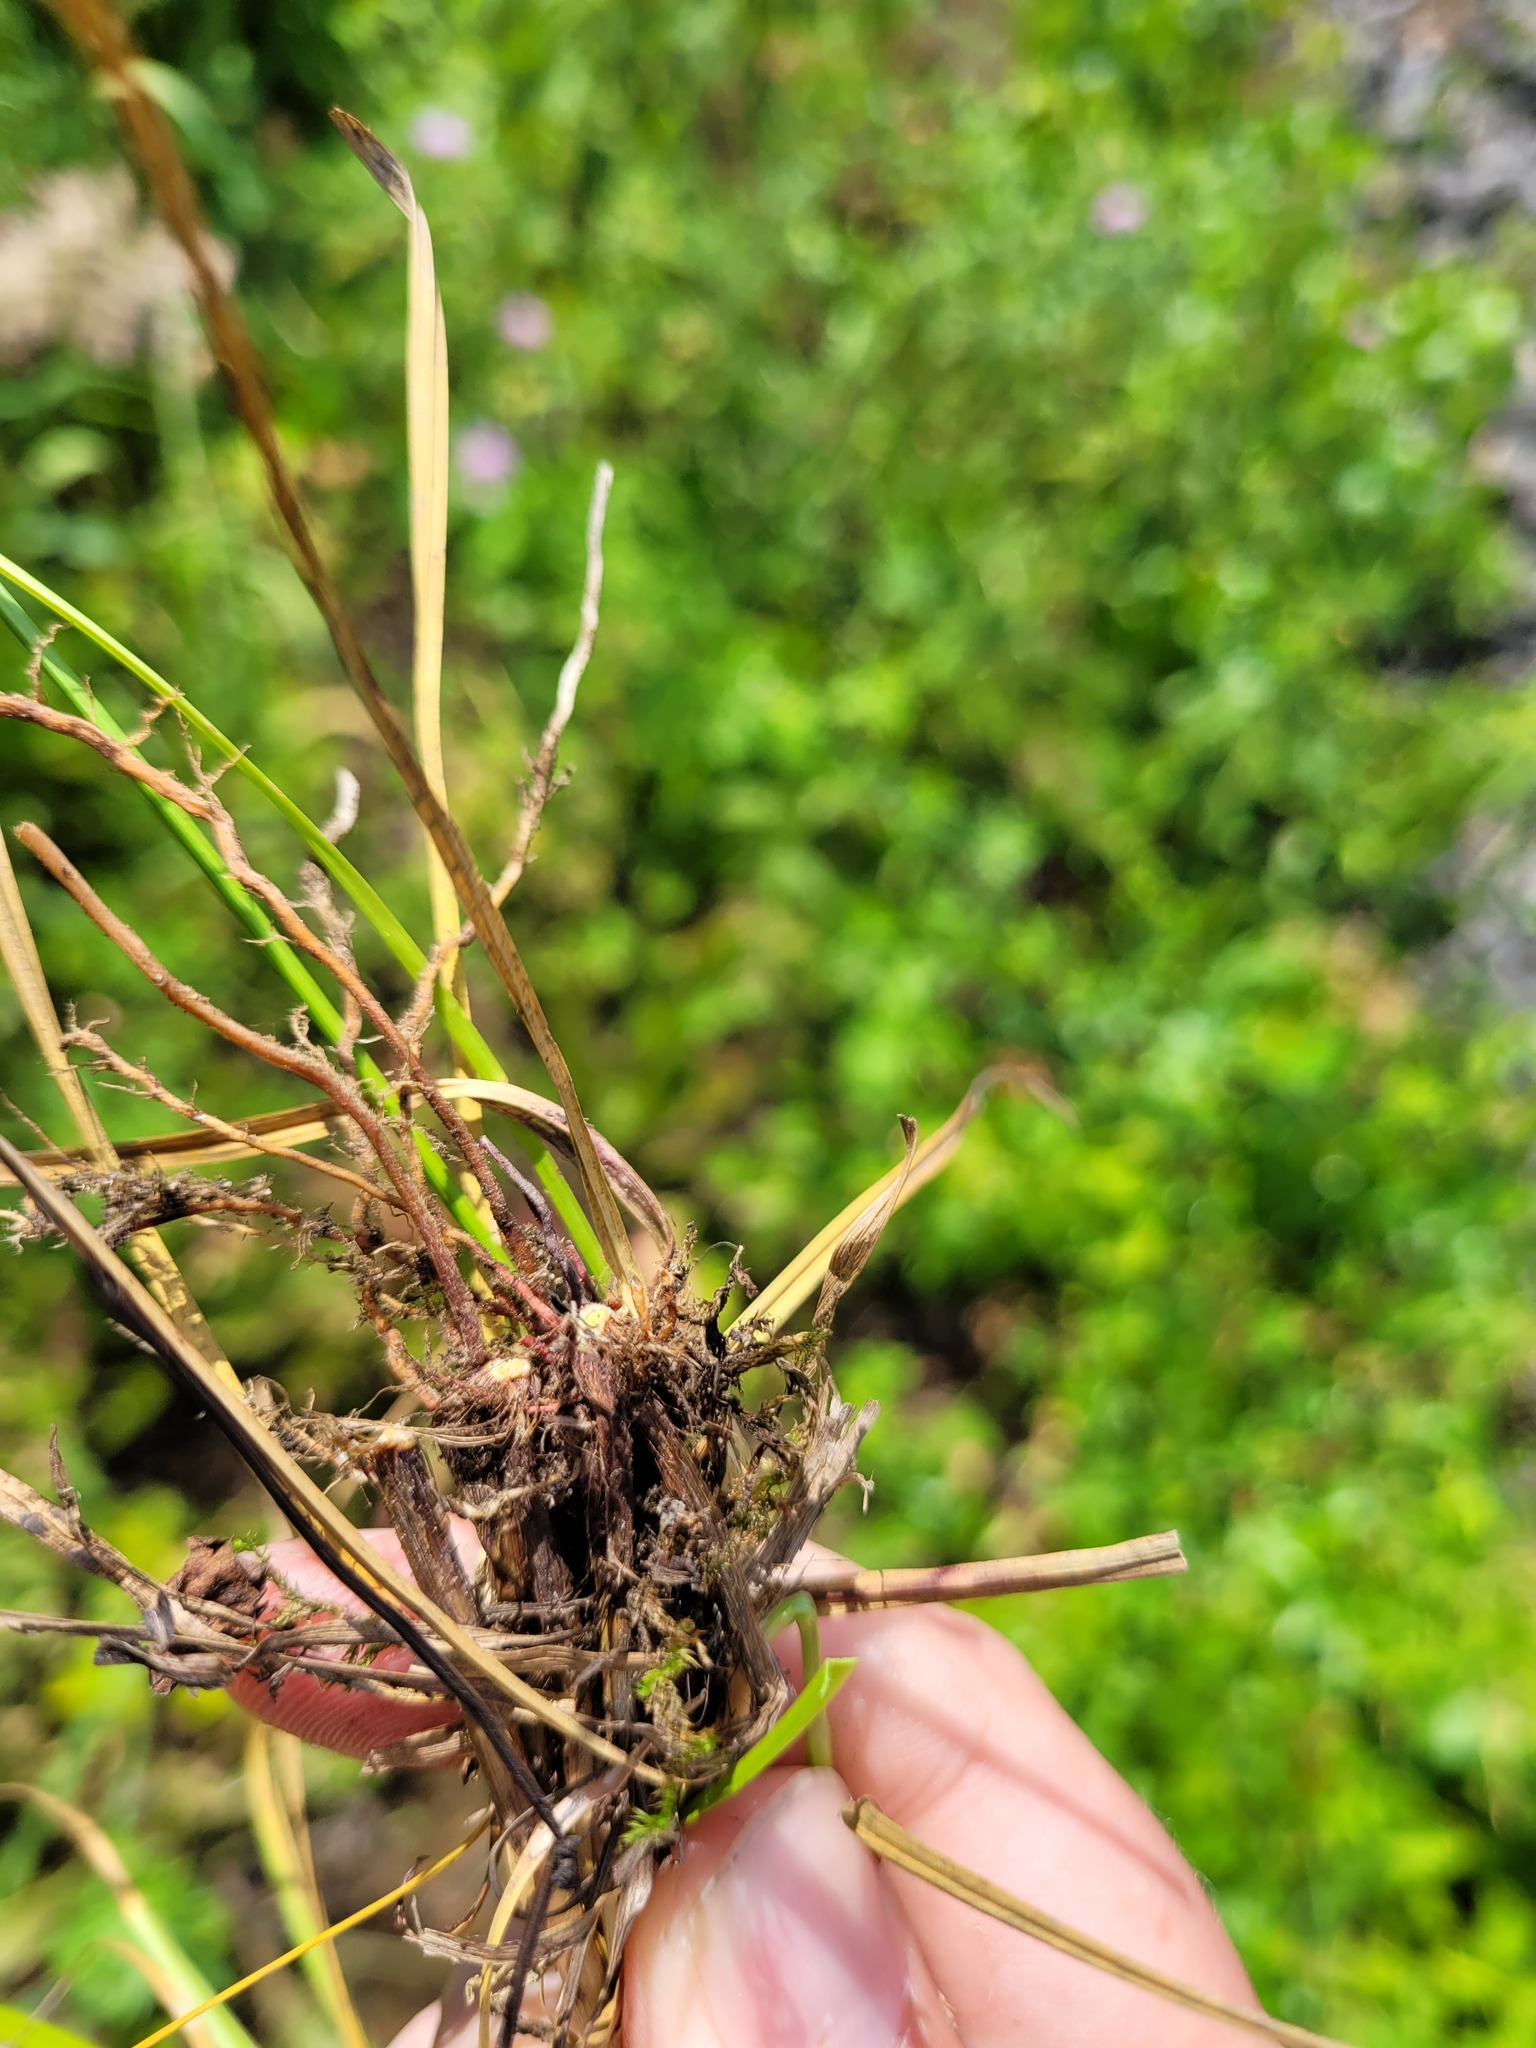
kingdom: Plantae
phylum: Tracheophyta
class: Liliopsida
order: Poales
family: Cyperaceae
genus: Carex
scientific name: Carex spicata
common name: Spiked sedge
